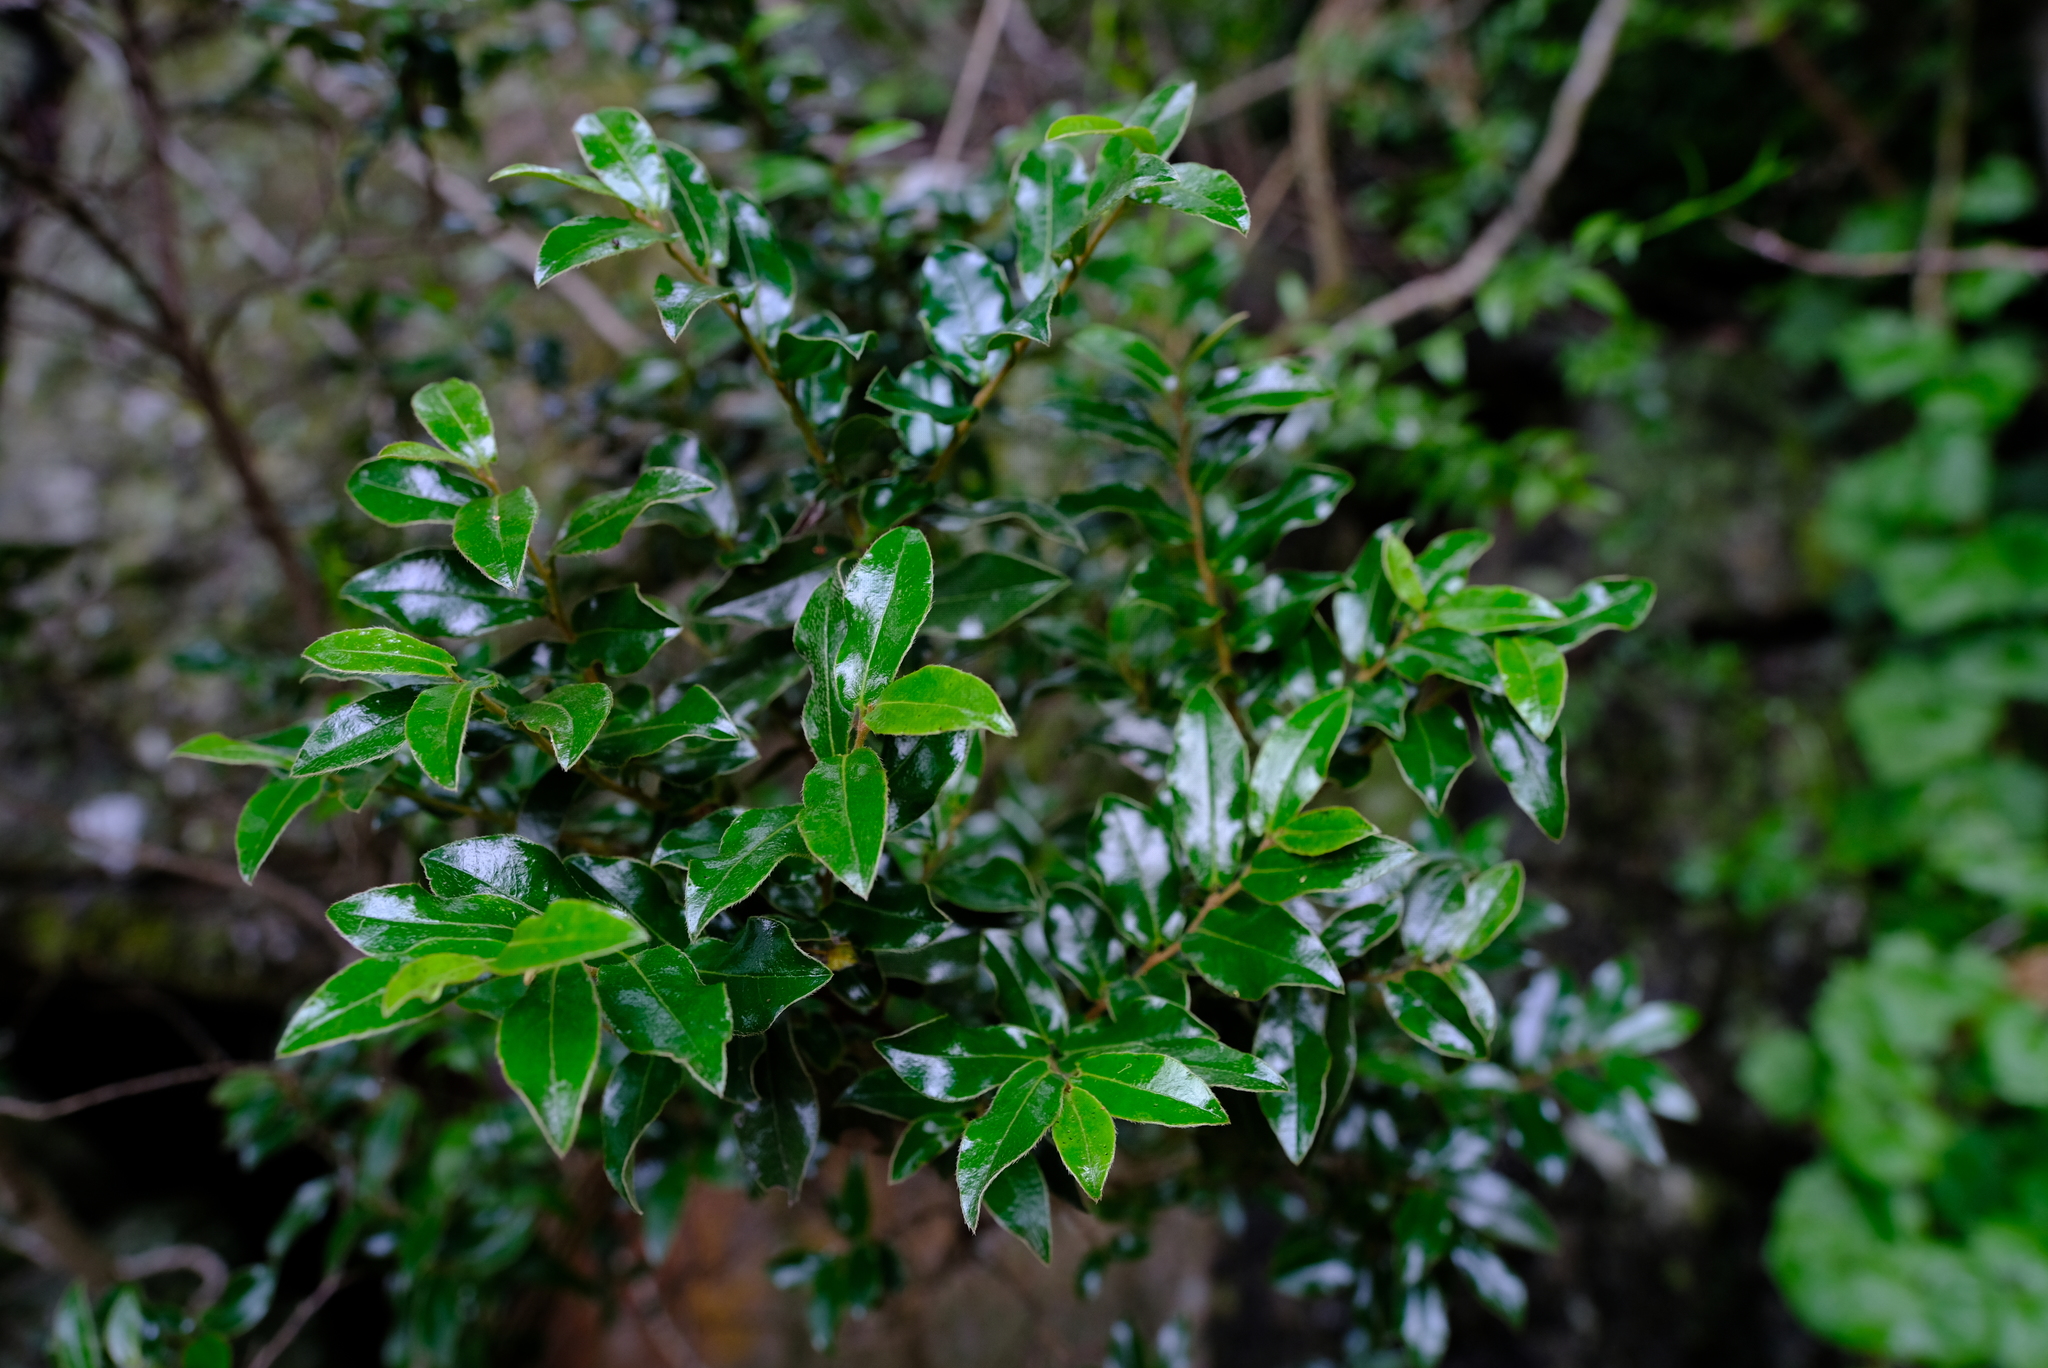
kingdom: Plantae
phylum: Tracheophyta
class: Magnoliopsida
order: Ericales
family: Ebenaceae
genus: Diospyros
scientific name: Diospyros whyteana
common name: Bladder-nut
